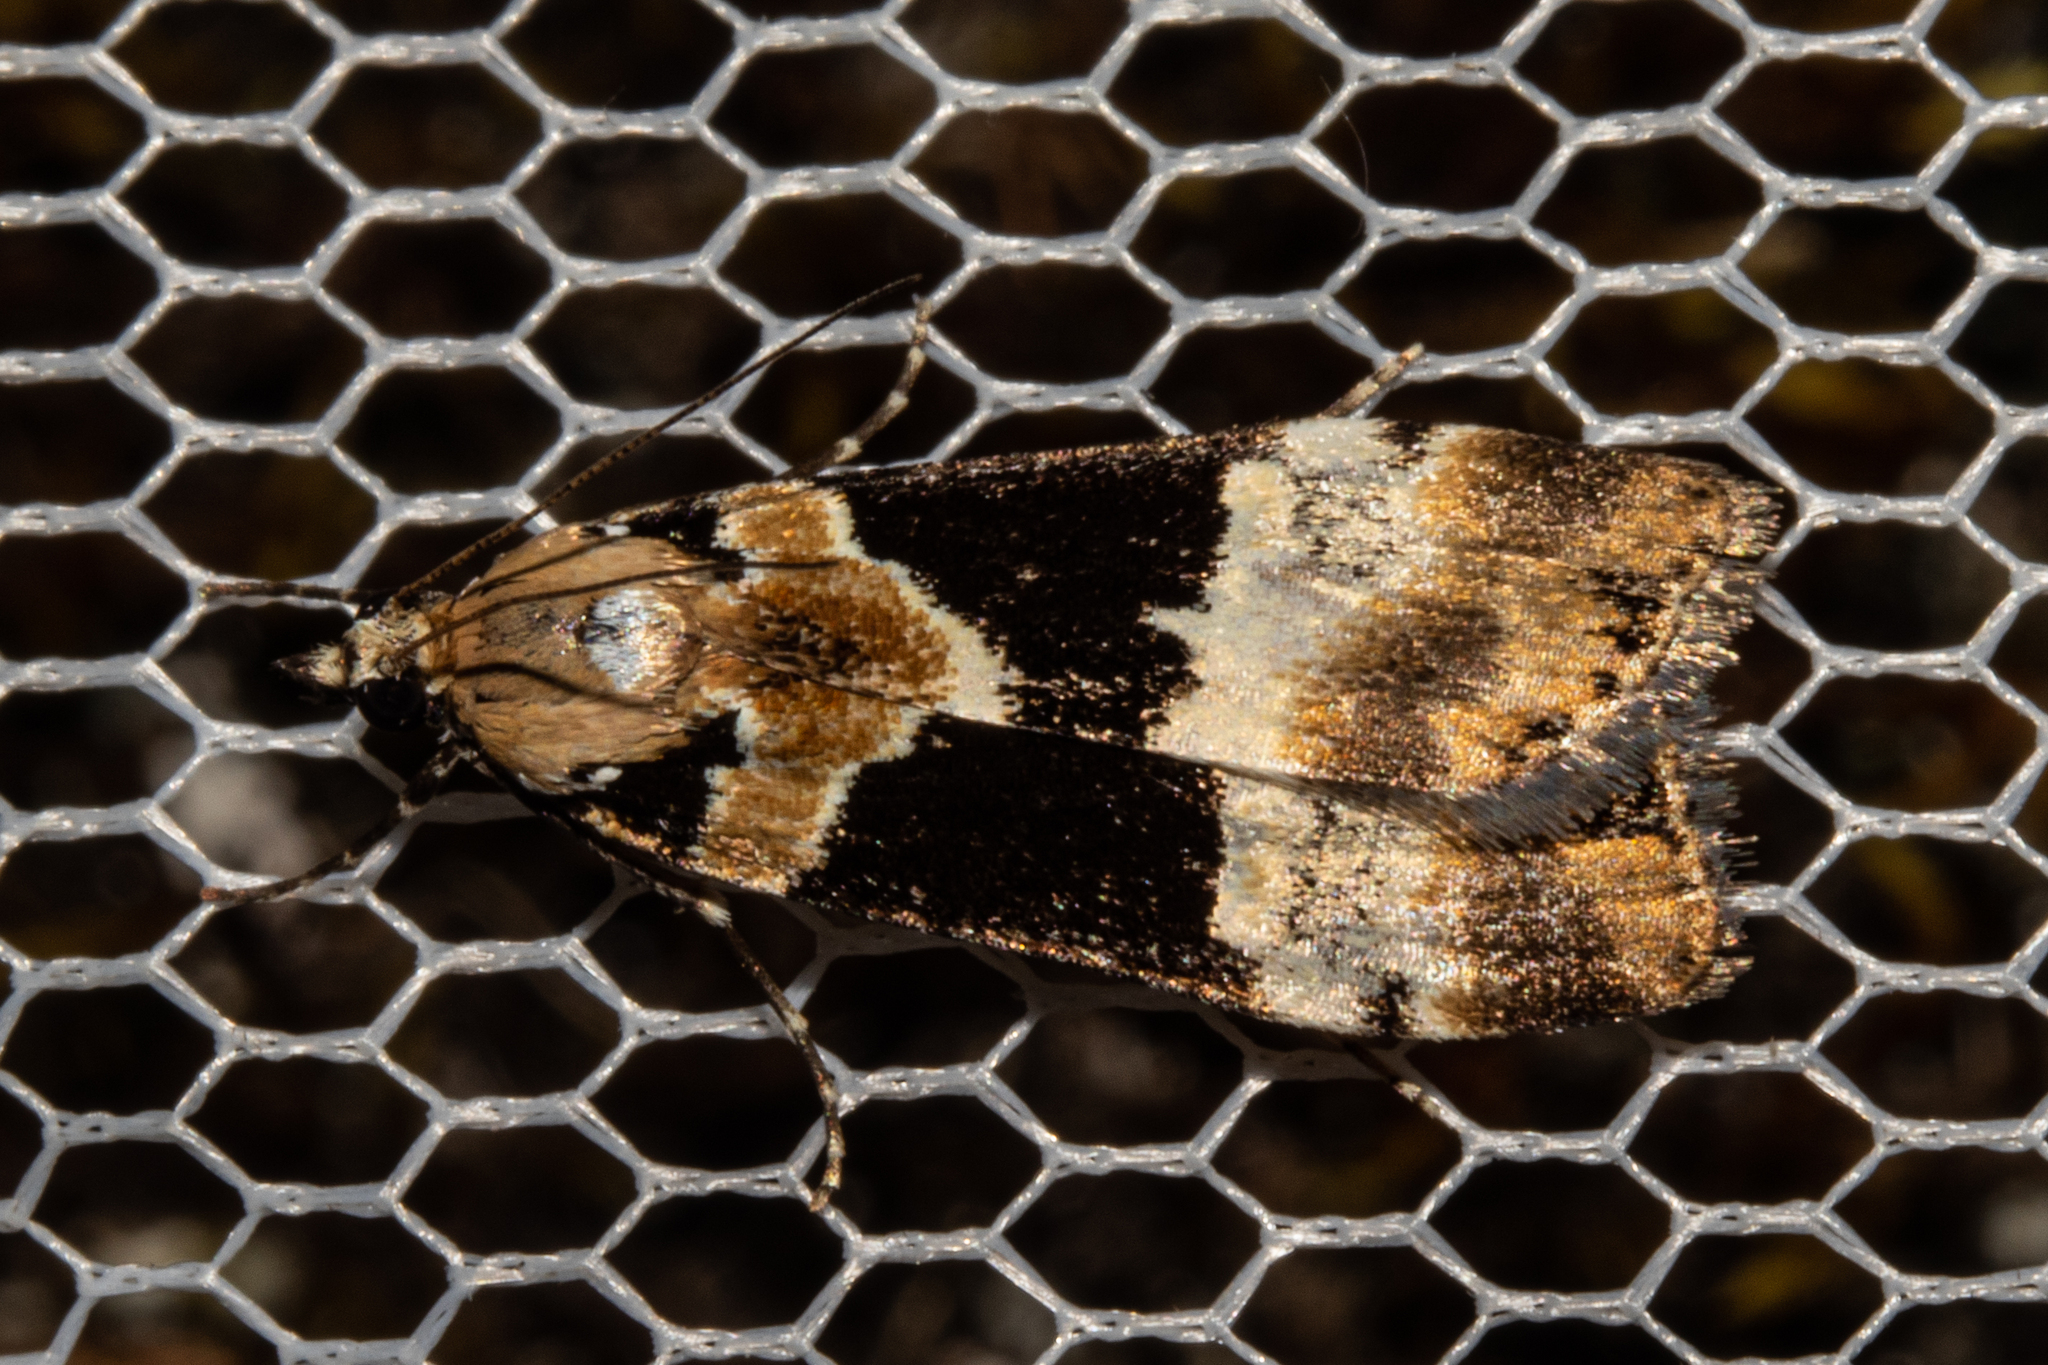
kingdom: Animalia
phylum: Arthropoda
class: Insecta
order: Lepidoptera
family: Crambidae
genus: Eudonia
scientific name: Eudonia aspidota
